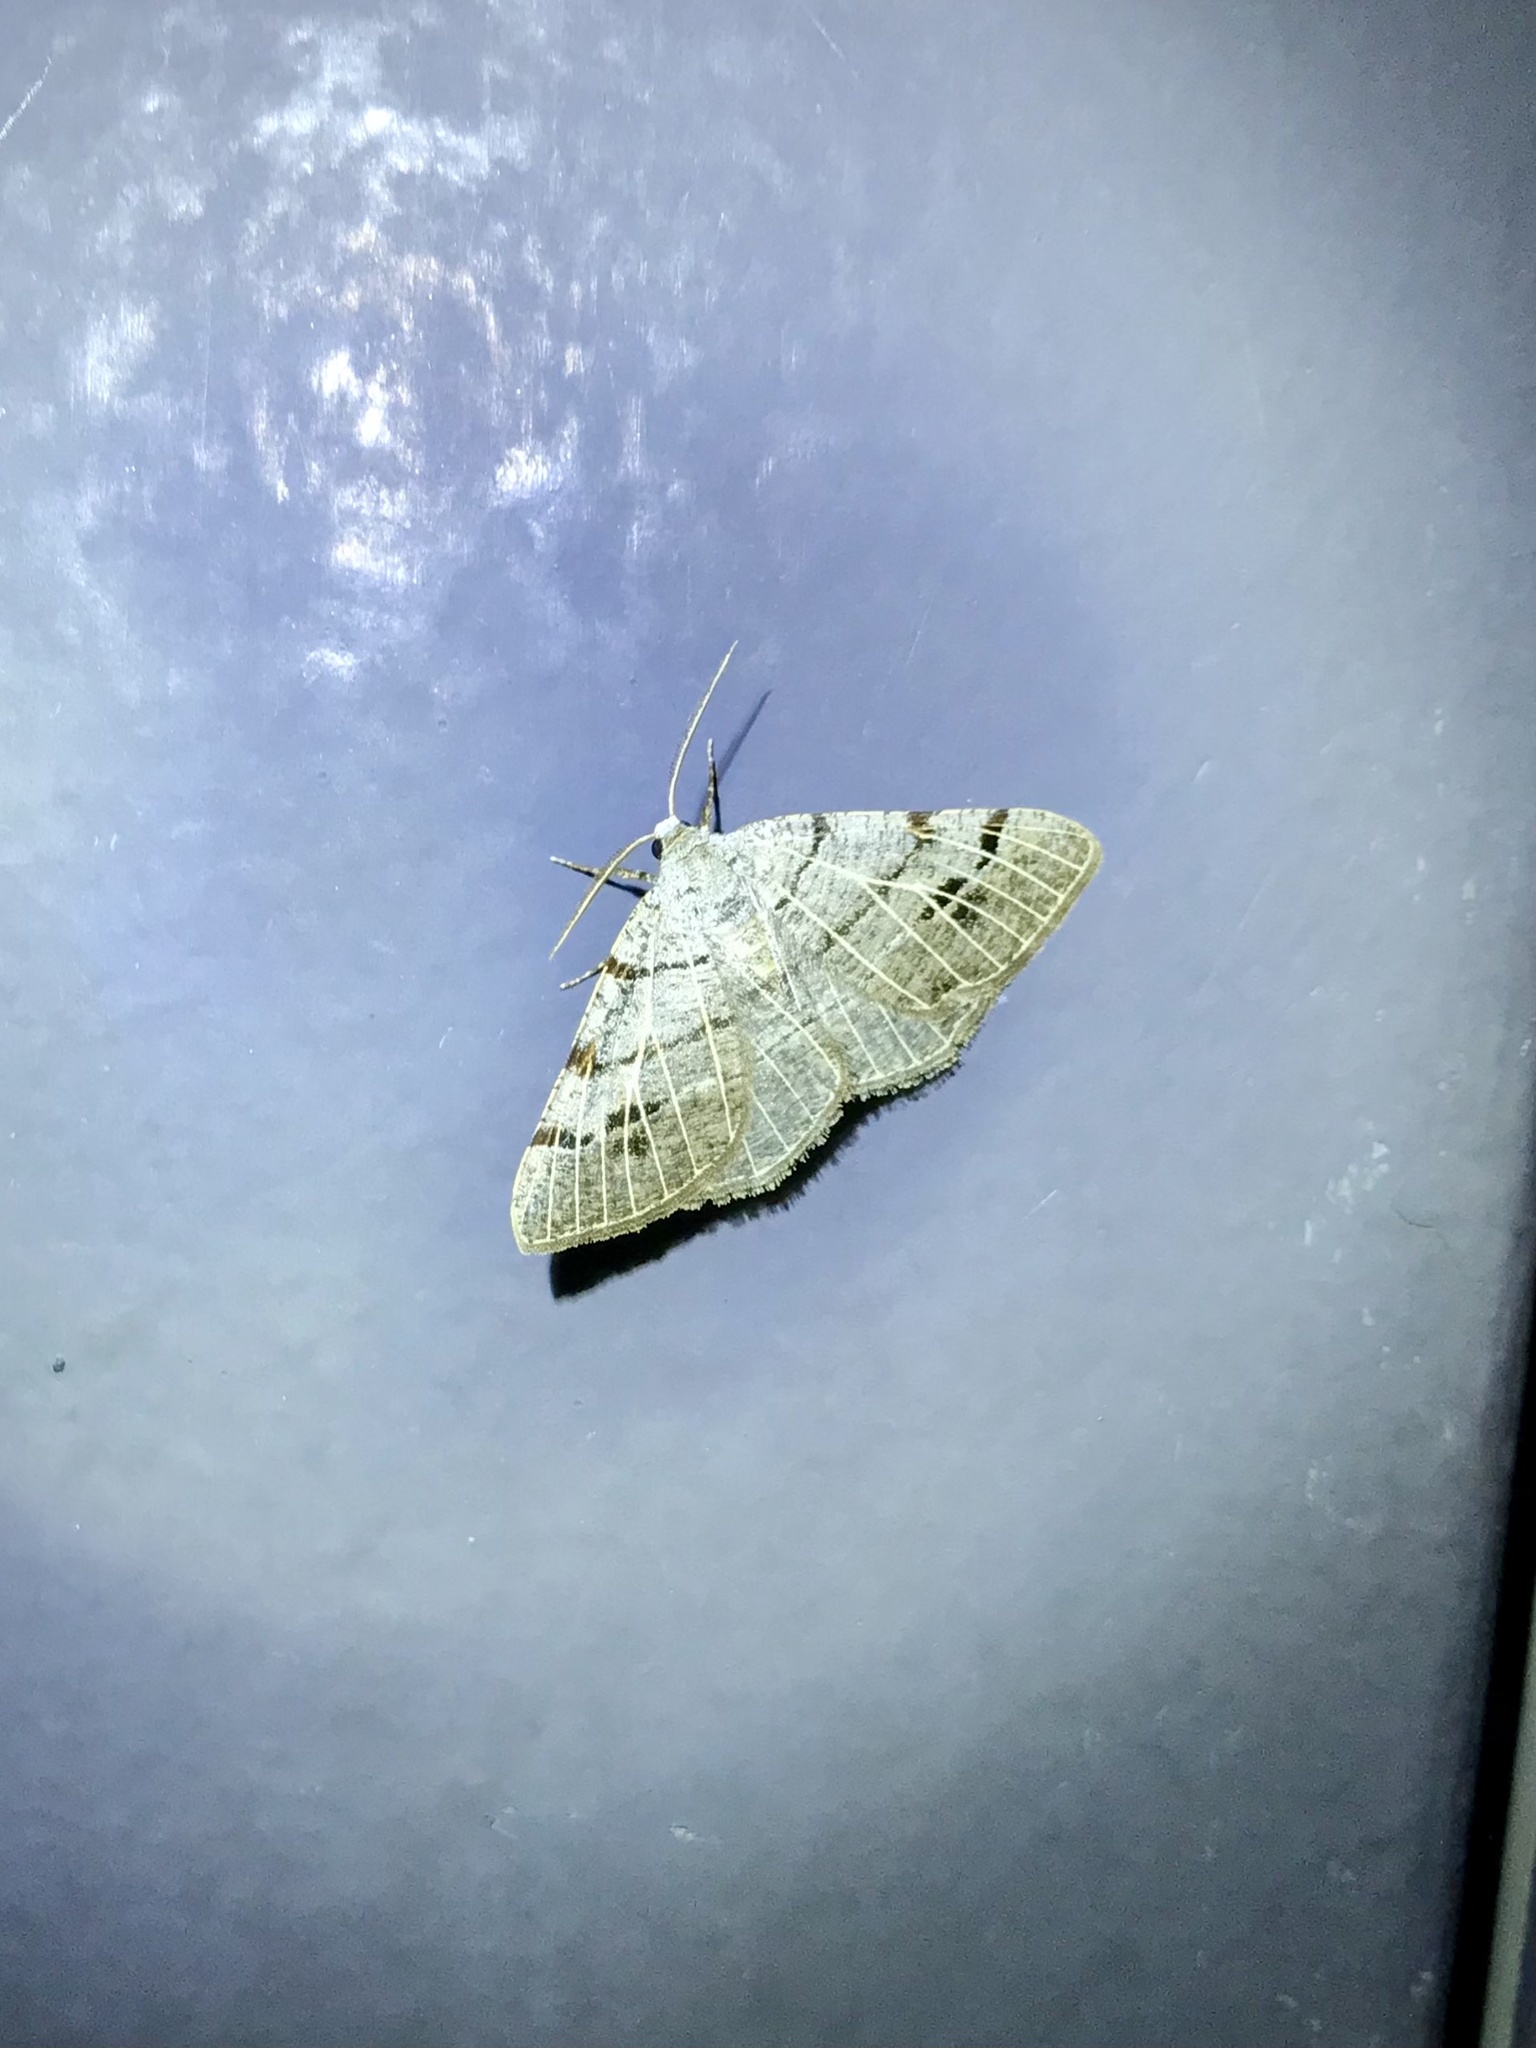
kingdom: Animalia
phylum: Arthropoda
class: Insecta
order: Lepidoptera
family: Geometridae
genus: Isturgia
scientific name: Isturgia dislocaria
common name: Pale-viened enconista
